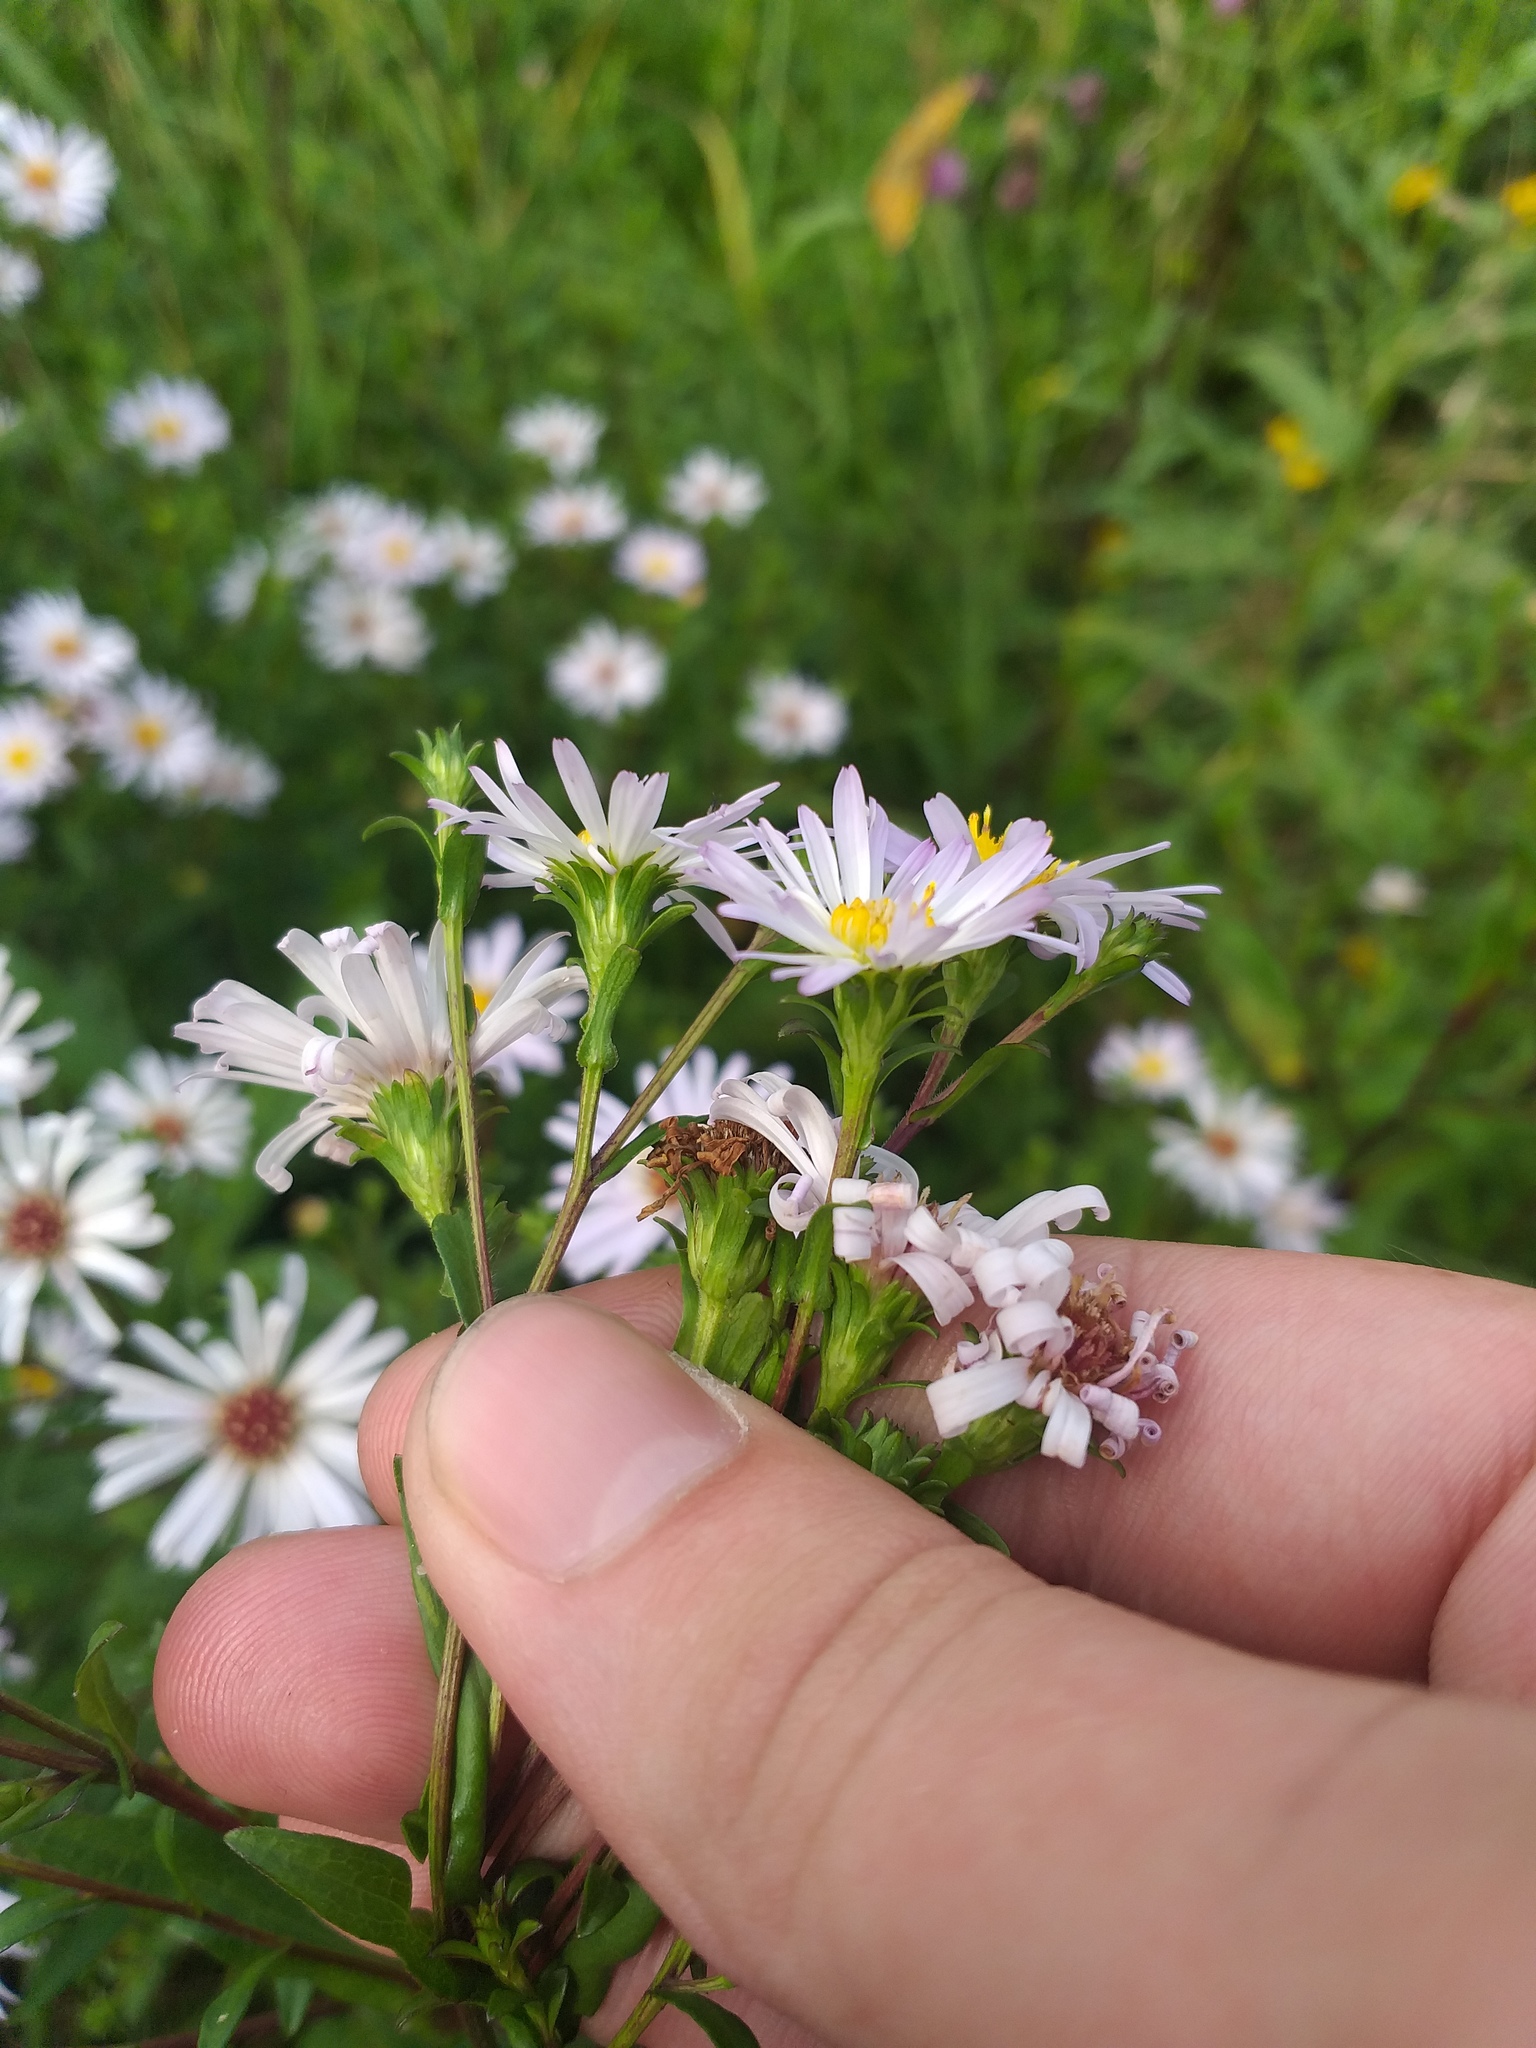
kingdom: Plantae
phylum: Tracheophyta
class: Magnoliopsida
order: Asterales
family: Asteraceae
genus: Symphyotrichum
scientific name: Symphyotrichum novi-belgii
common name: Michaelmas daisy
